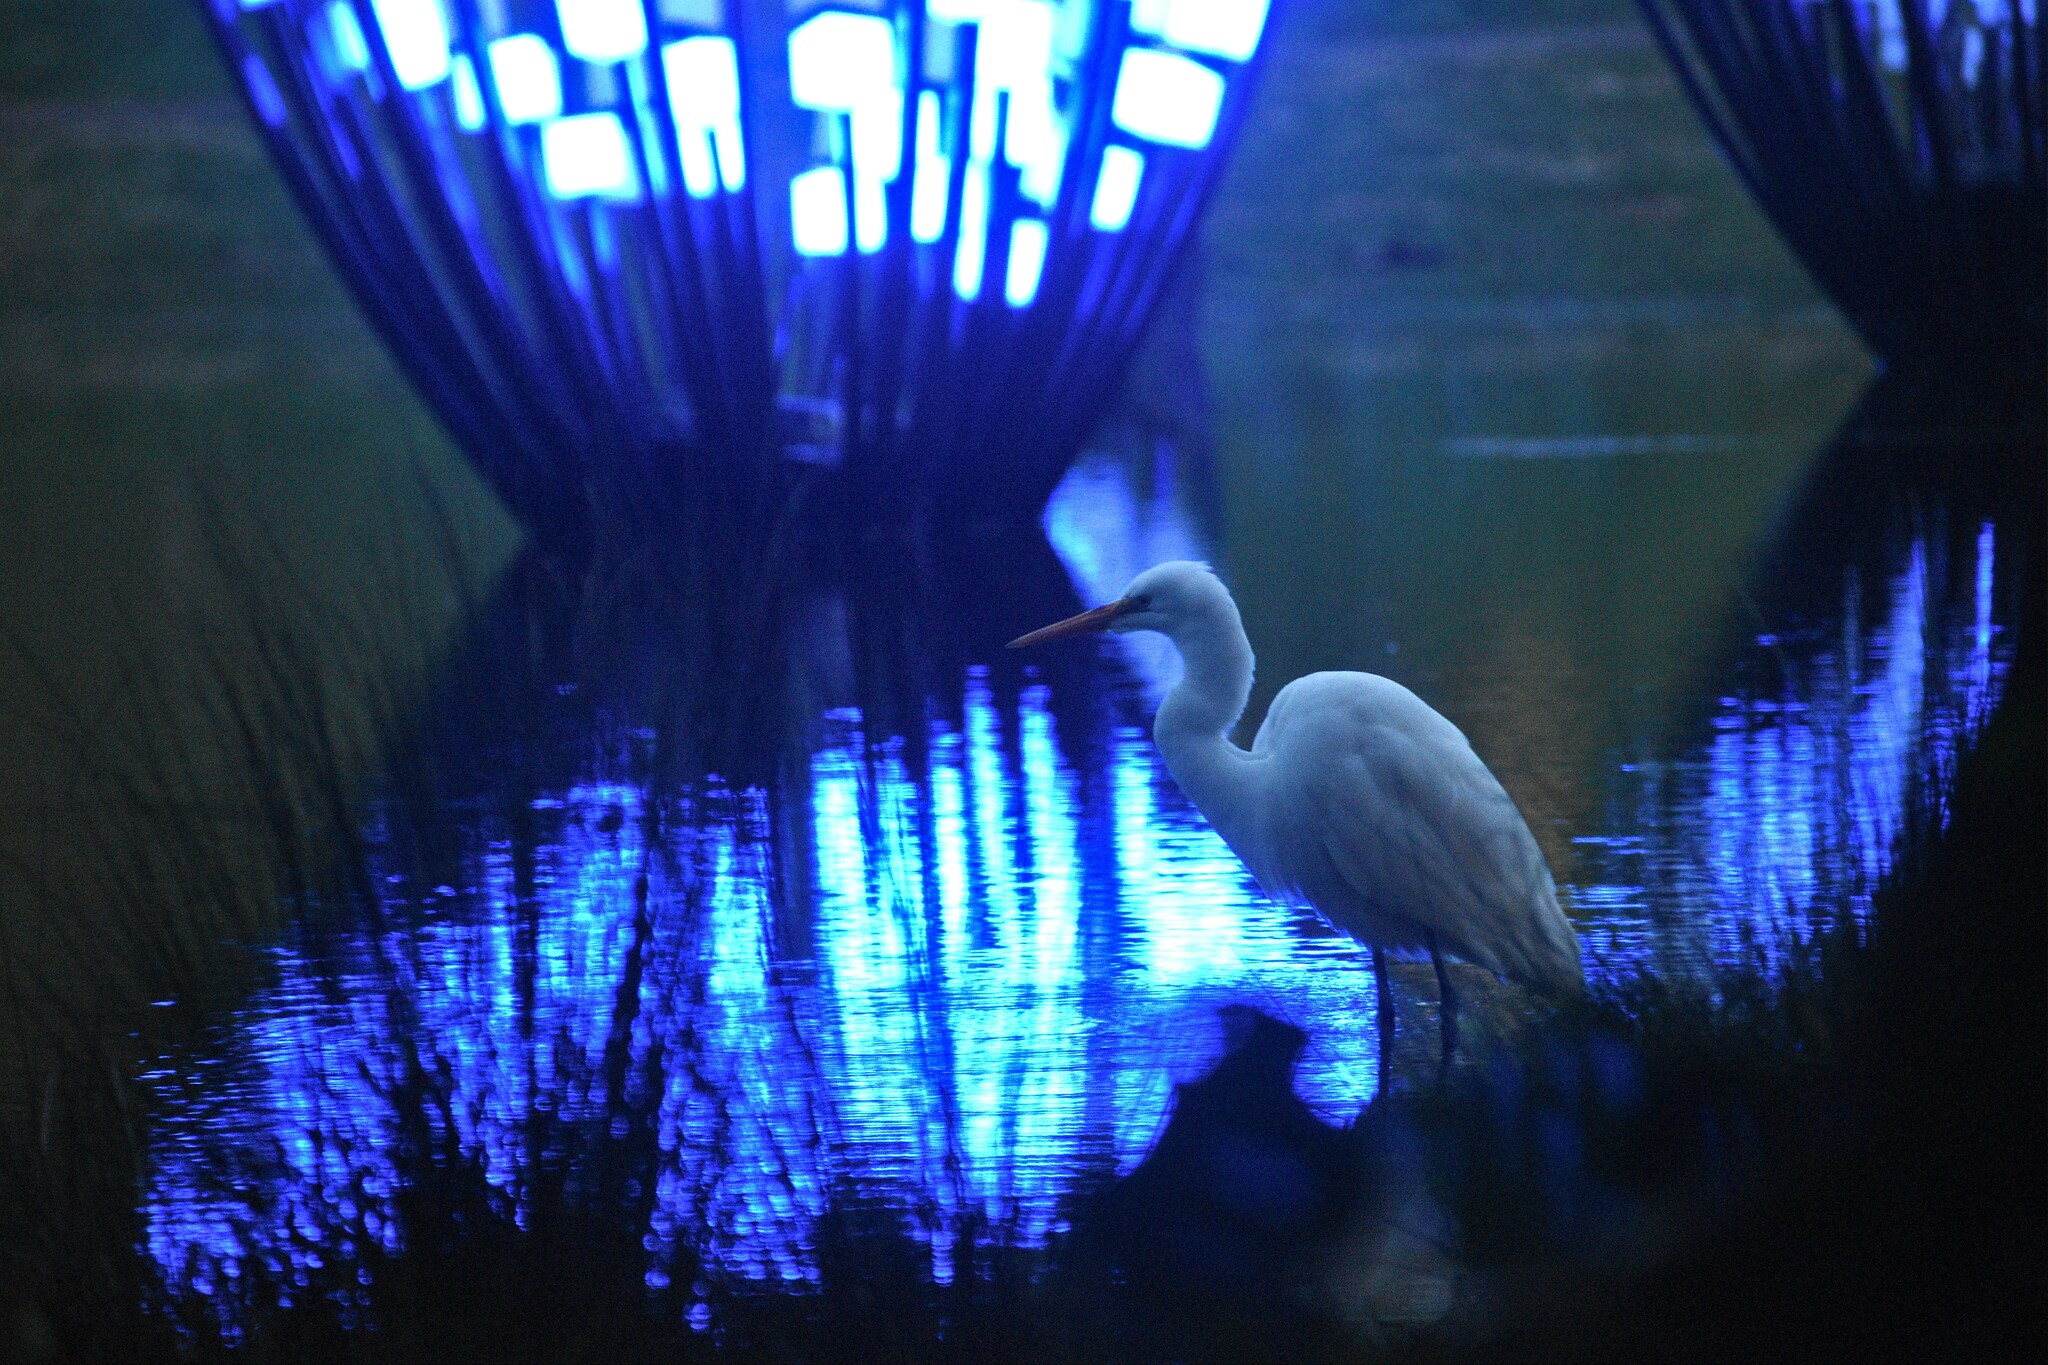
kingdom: Animalia
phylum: Chordata
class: Aves
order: Pelecaniformes
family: Ardeidae
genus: Ardea
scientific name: Ardea alba
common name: Great egret
